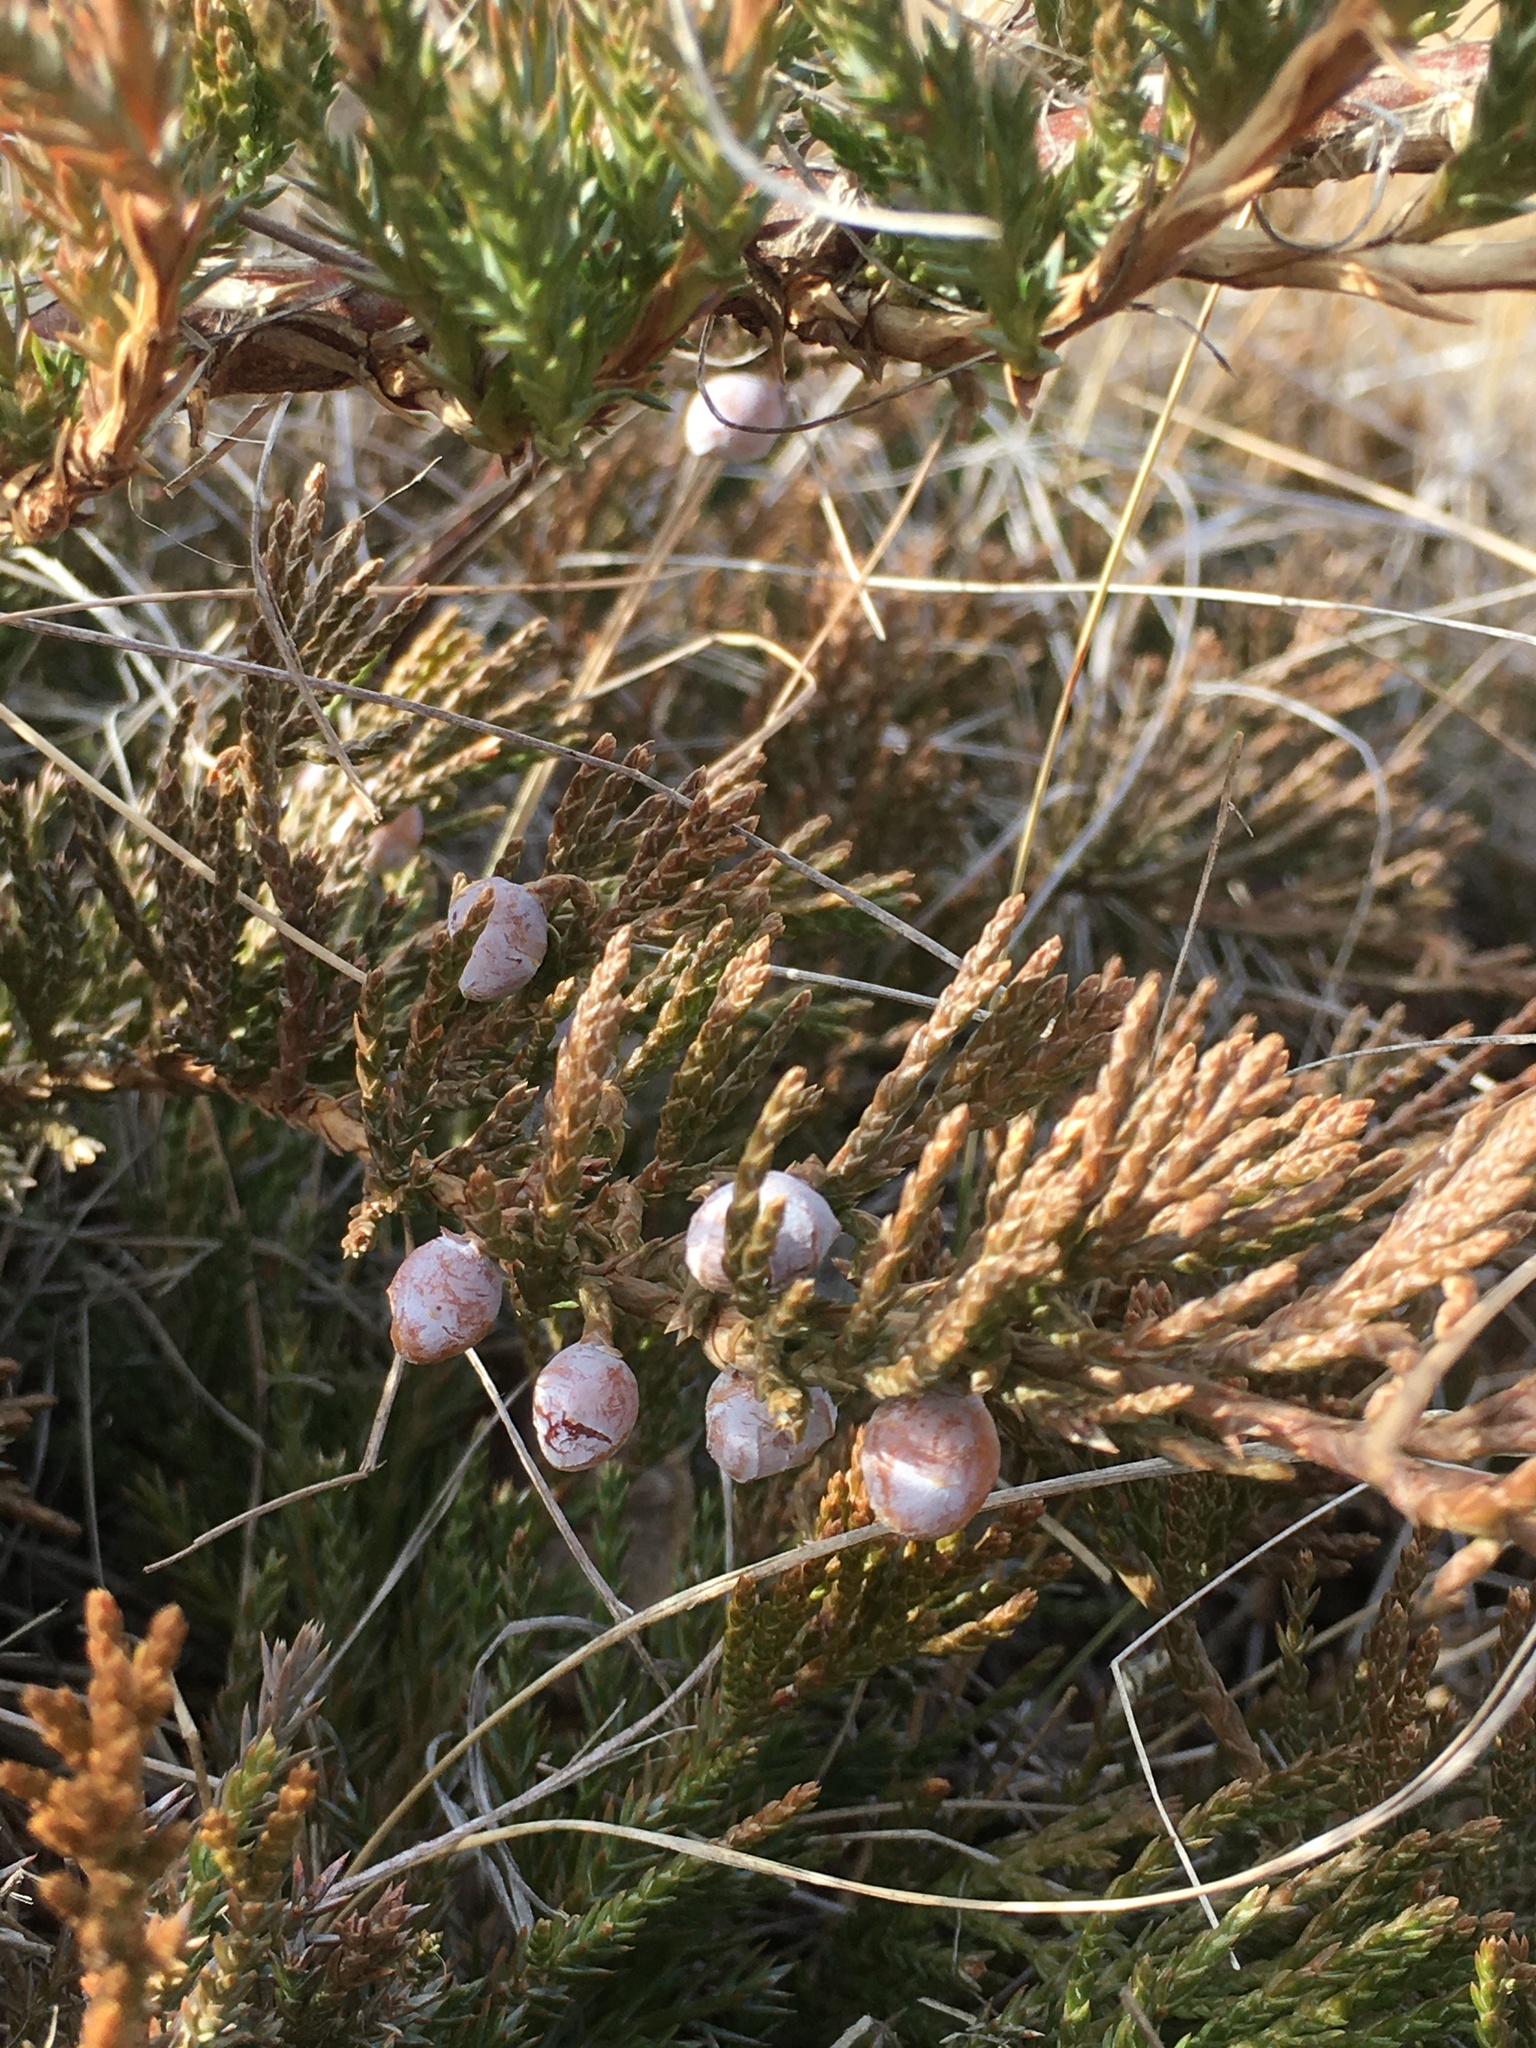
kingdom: Plantae
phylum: Tracheophyta
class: Pinopsida
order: Pinales
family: Cupressaceae
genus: Juniperus
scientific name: Juniperus horizontalis
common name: Creeping juniper
